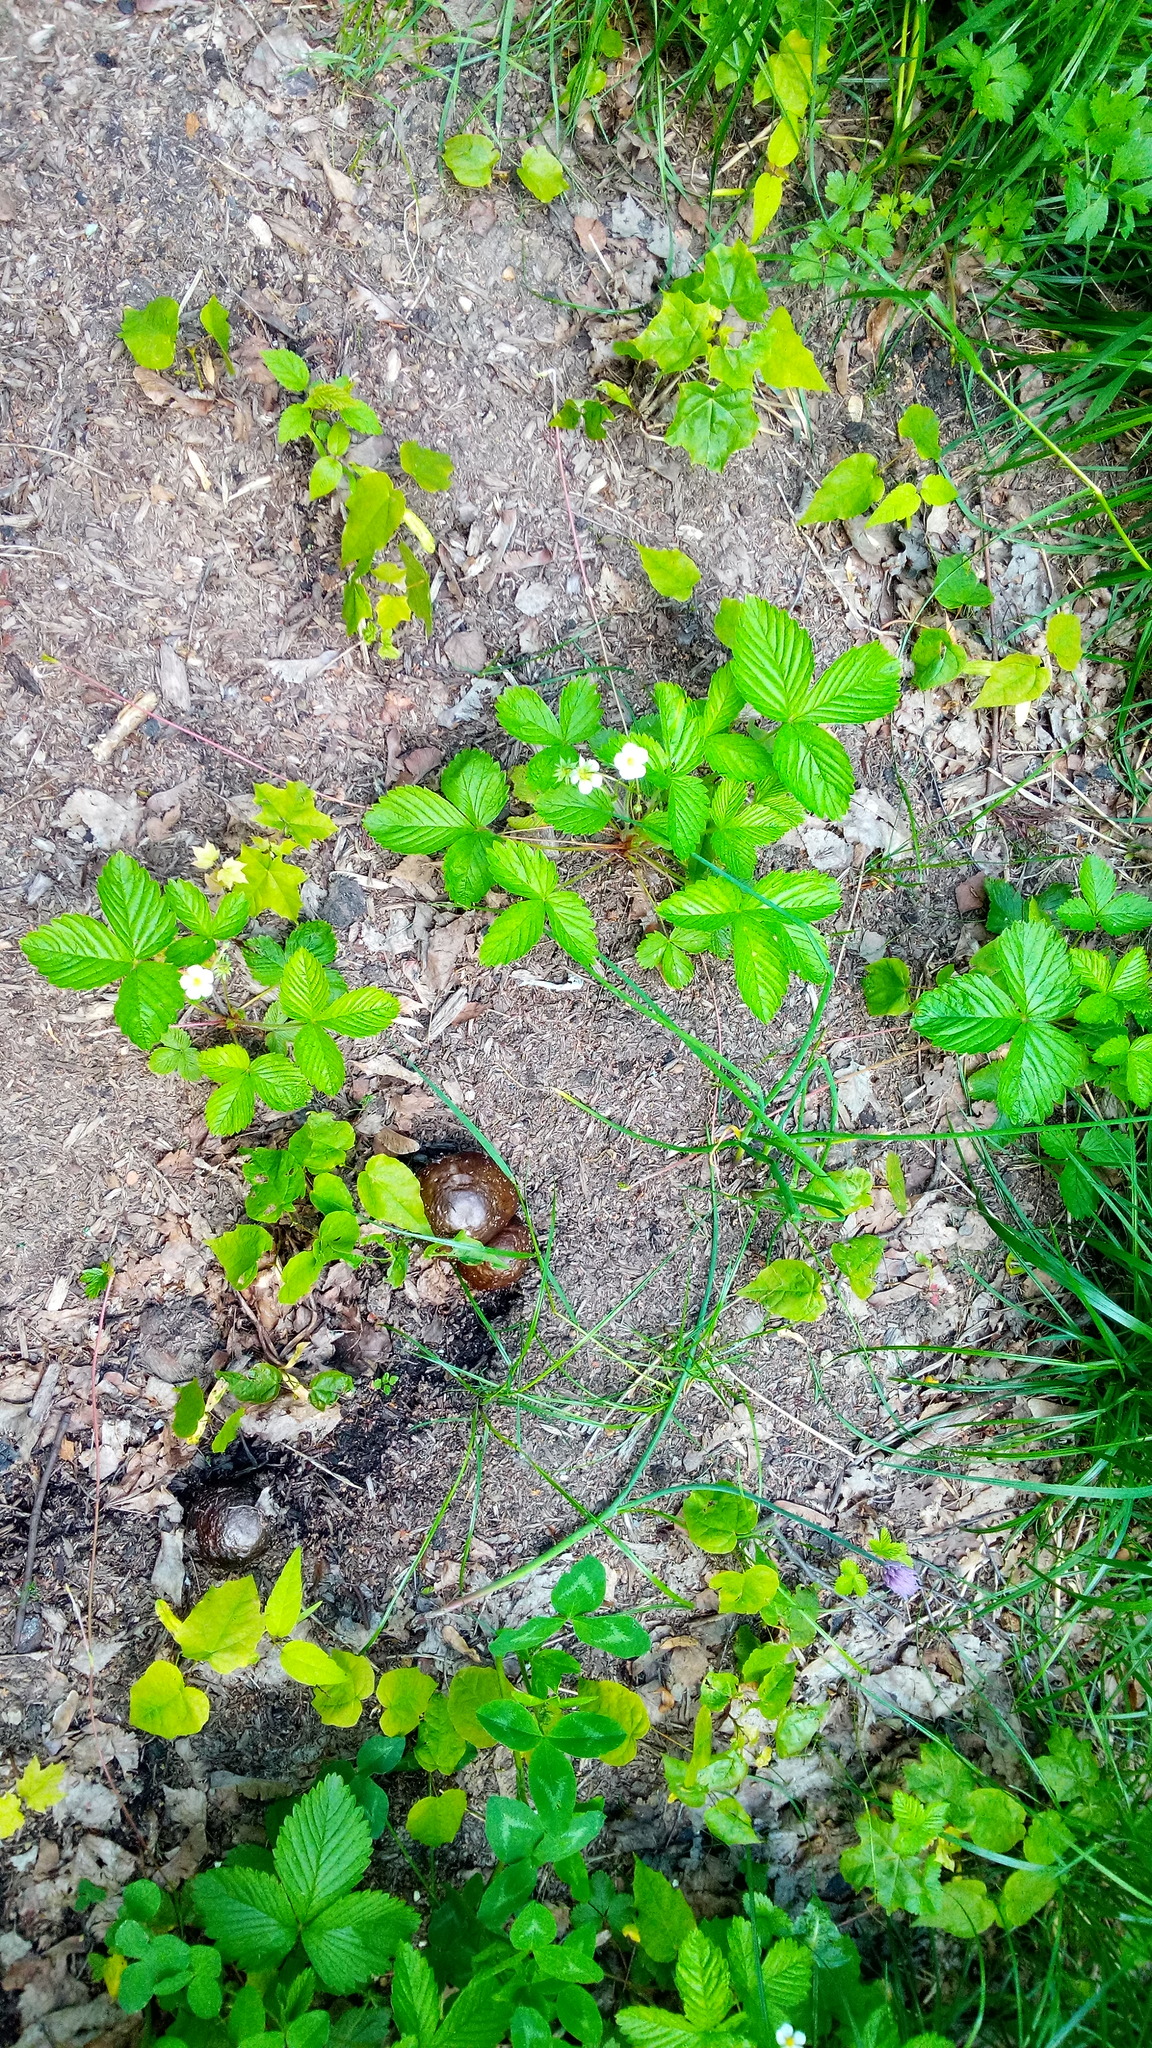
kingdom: Plantae
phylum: Tracheophyta
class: Magnoliopsida
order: Rosales
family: Rosaceae
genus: Fragaria
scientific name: Fragaria vesca
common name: Wild strawberry
